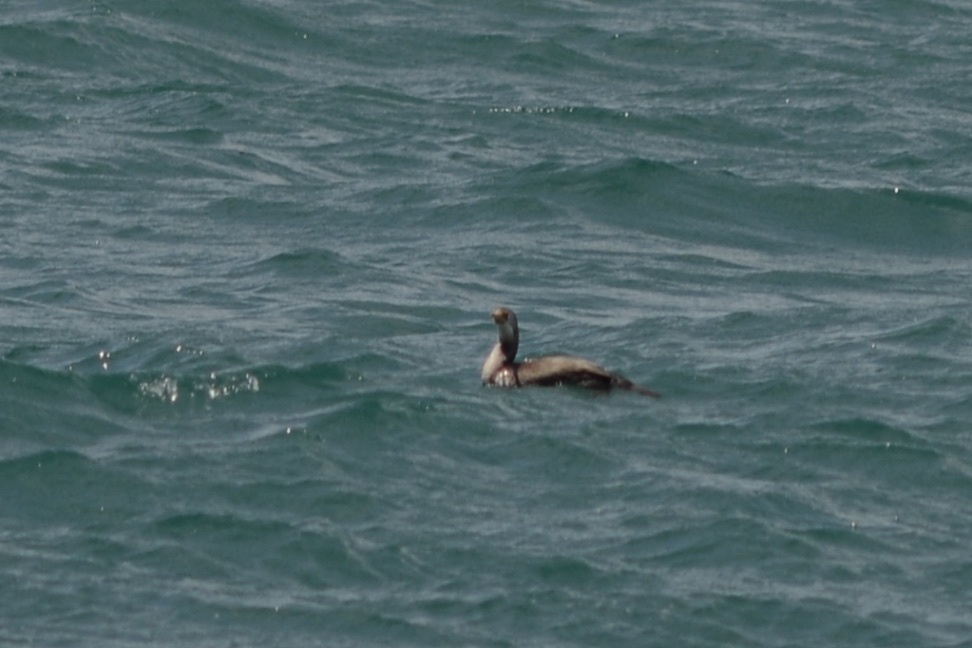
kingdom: Animalia
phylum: Chordata
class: Aves
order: Suliformes
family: Phalacrocoracidae
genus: Phalacrocorax
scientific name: Phalacrocorax punctatus
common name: Spotted shag
